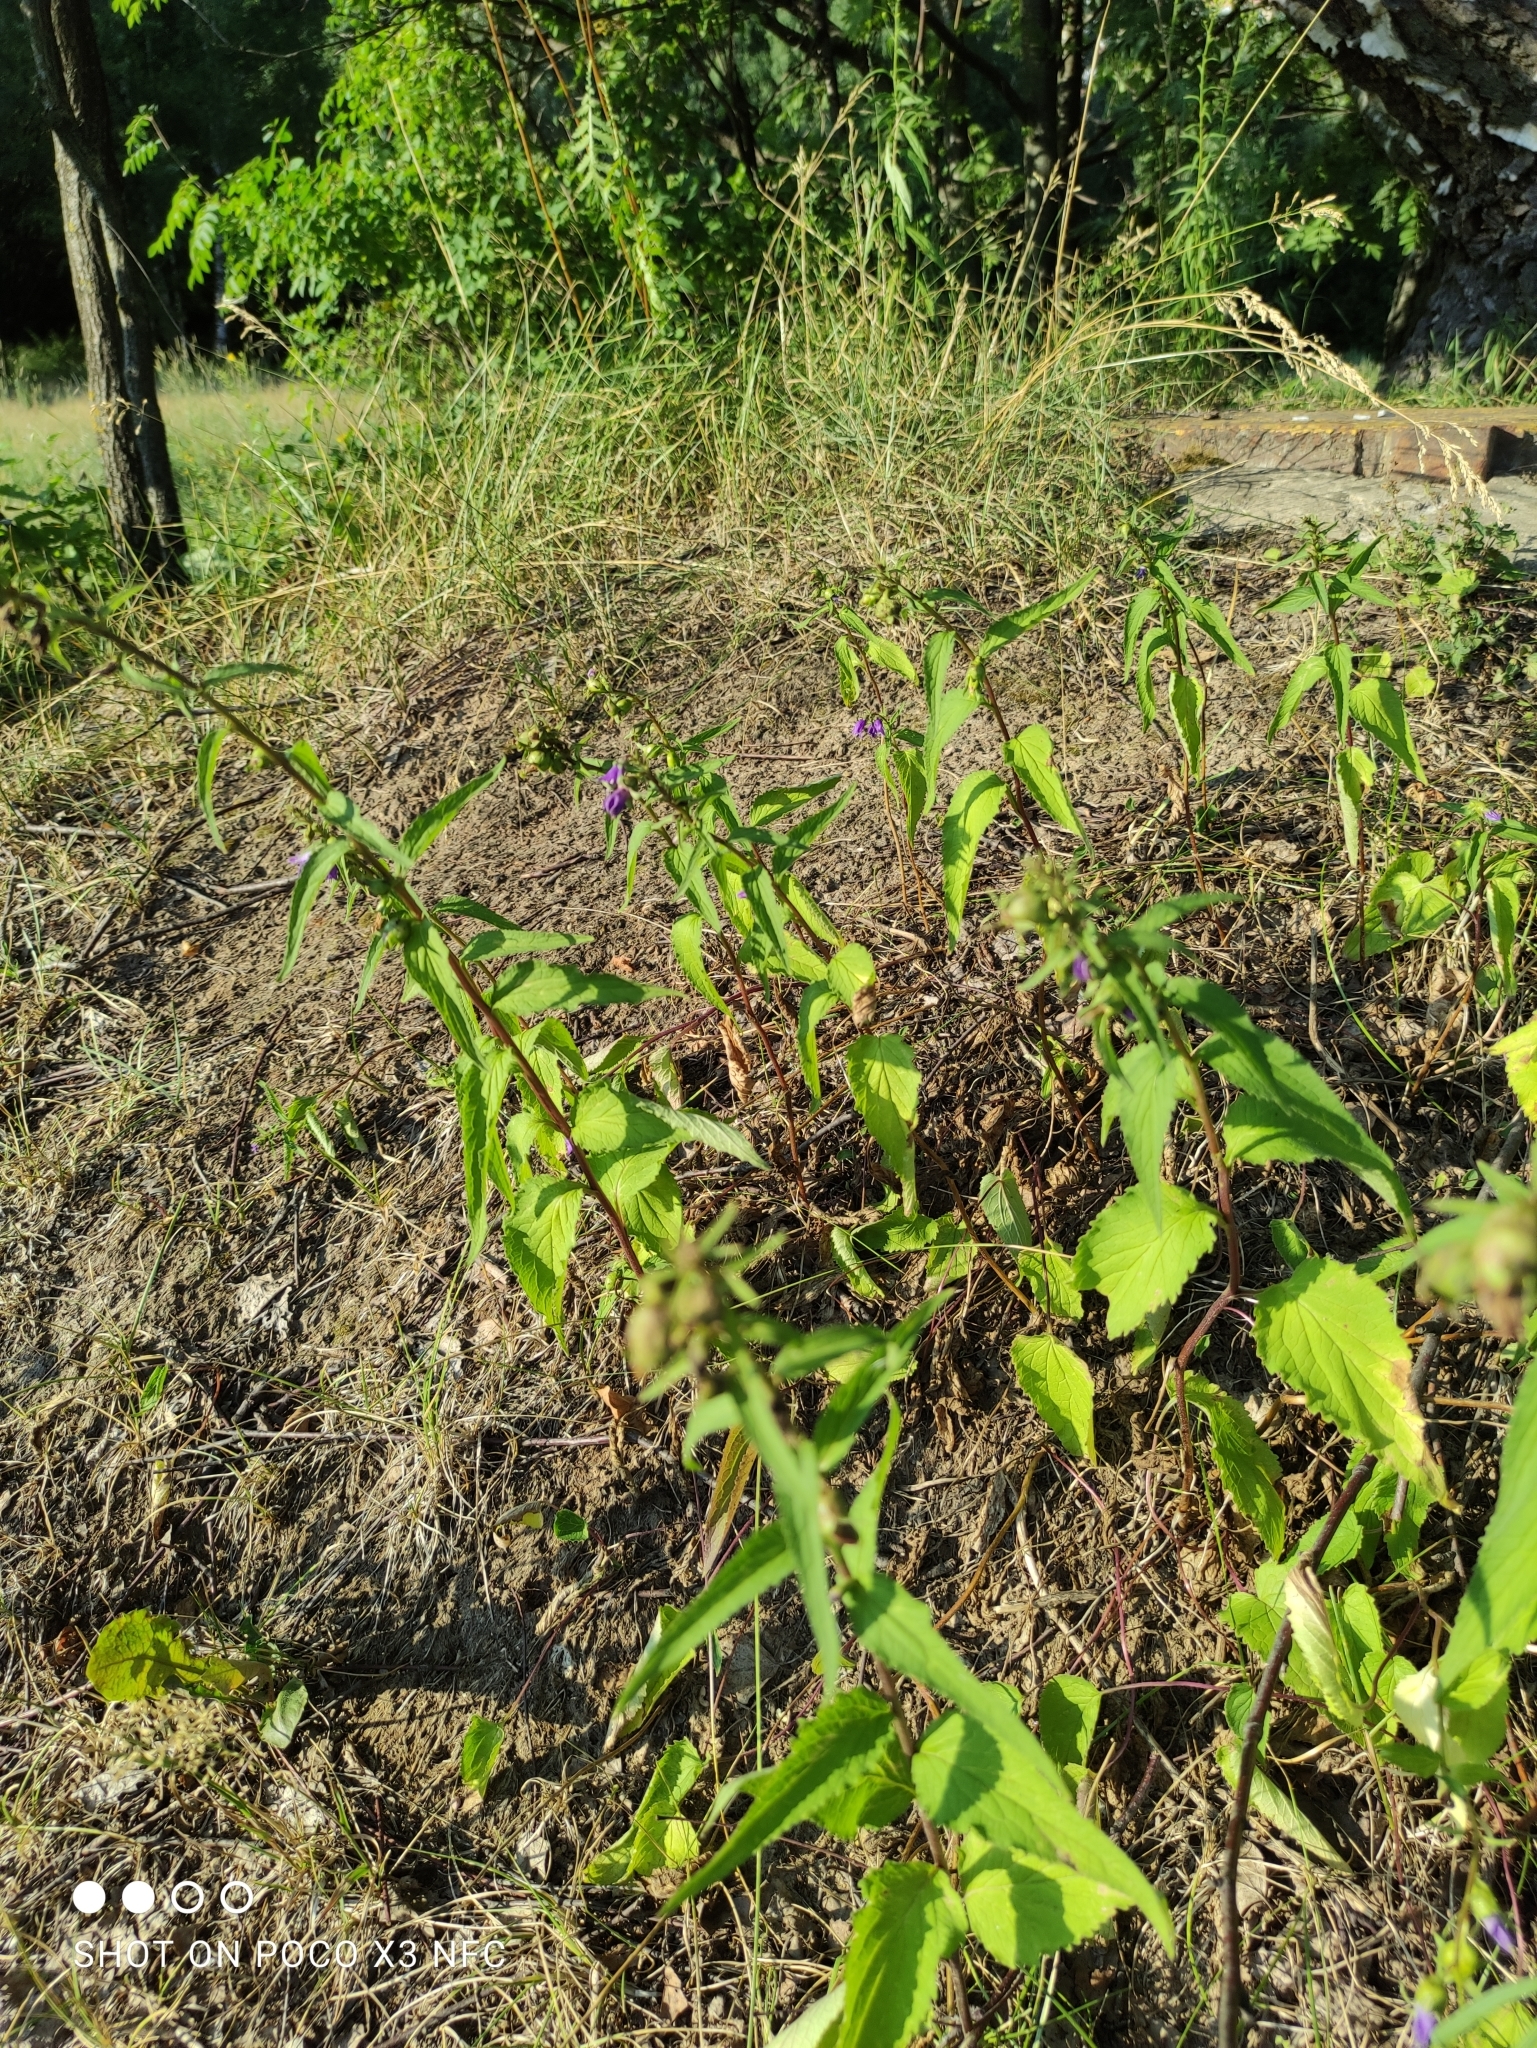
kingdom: Plantae
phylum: Tracheophyta
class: Magnoliopsida
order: Asterales
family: Campanulaceae
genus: Campanula
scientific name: Campanula rapunculoides
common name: Creeping bellflower
